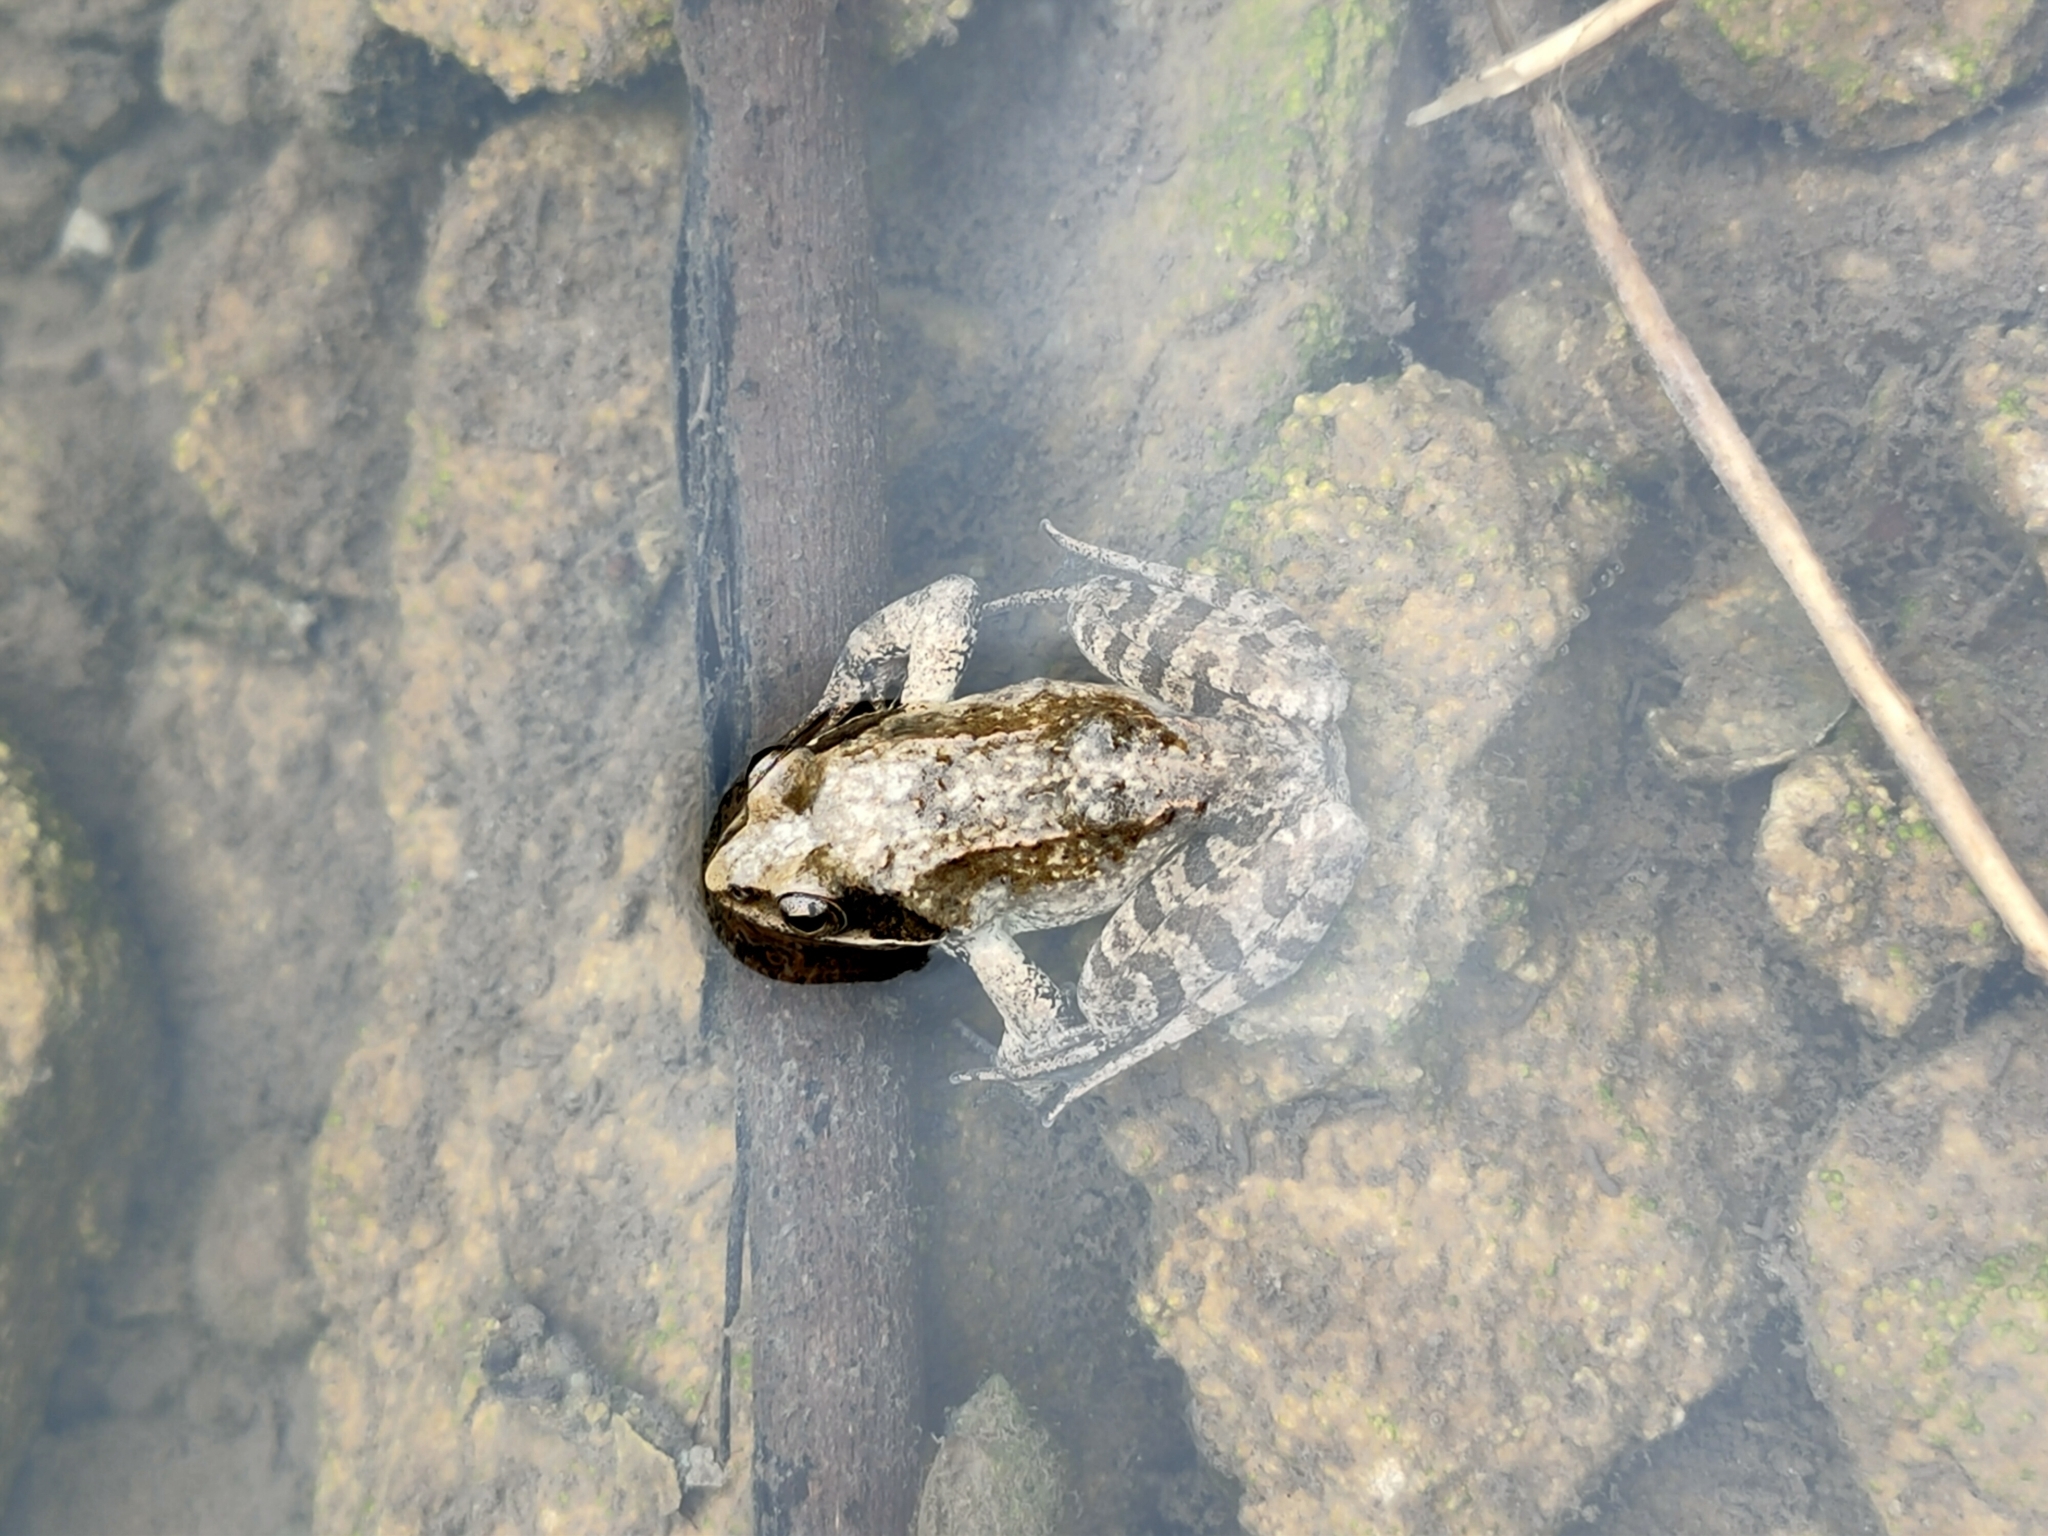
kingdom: Animalia
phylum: Chordata
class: Amphibia
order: Anura
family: Ranidae
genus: Rana
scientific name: Rana
